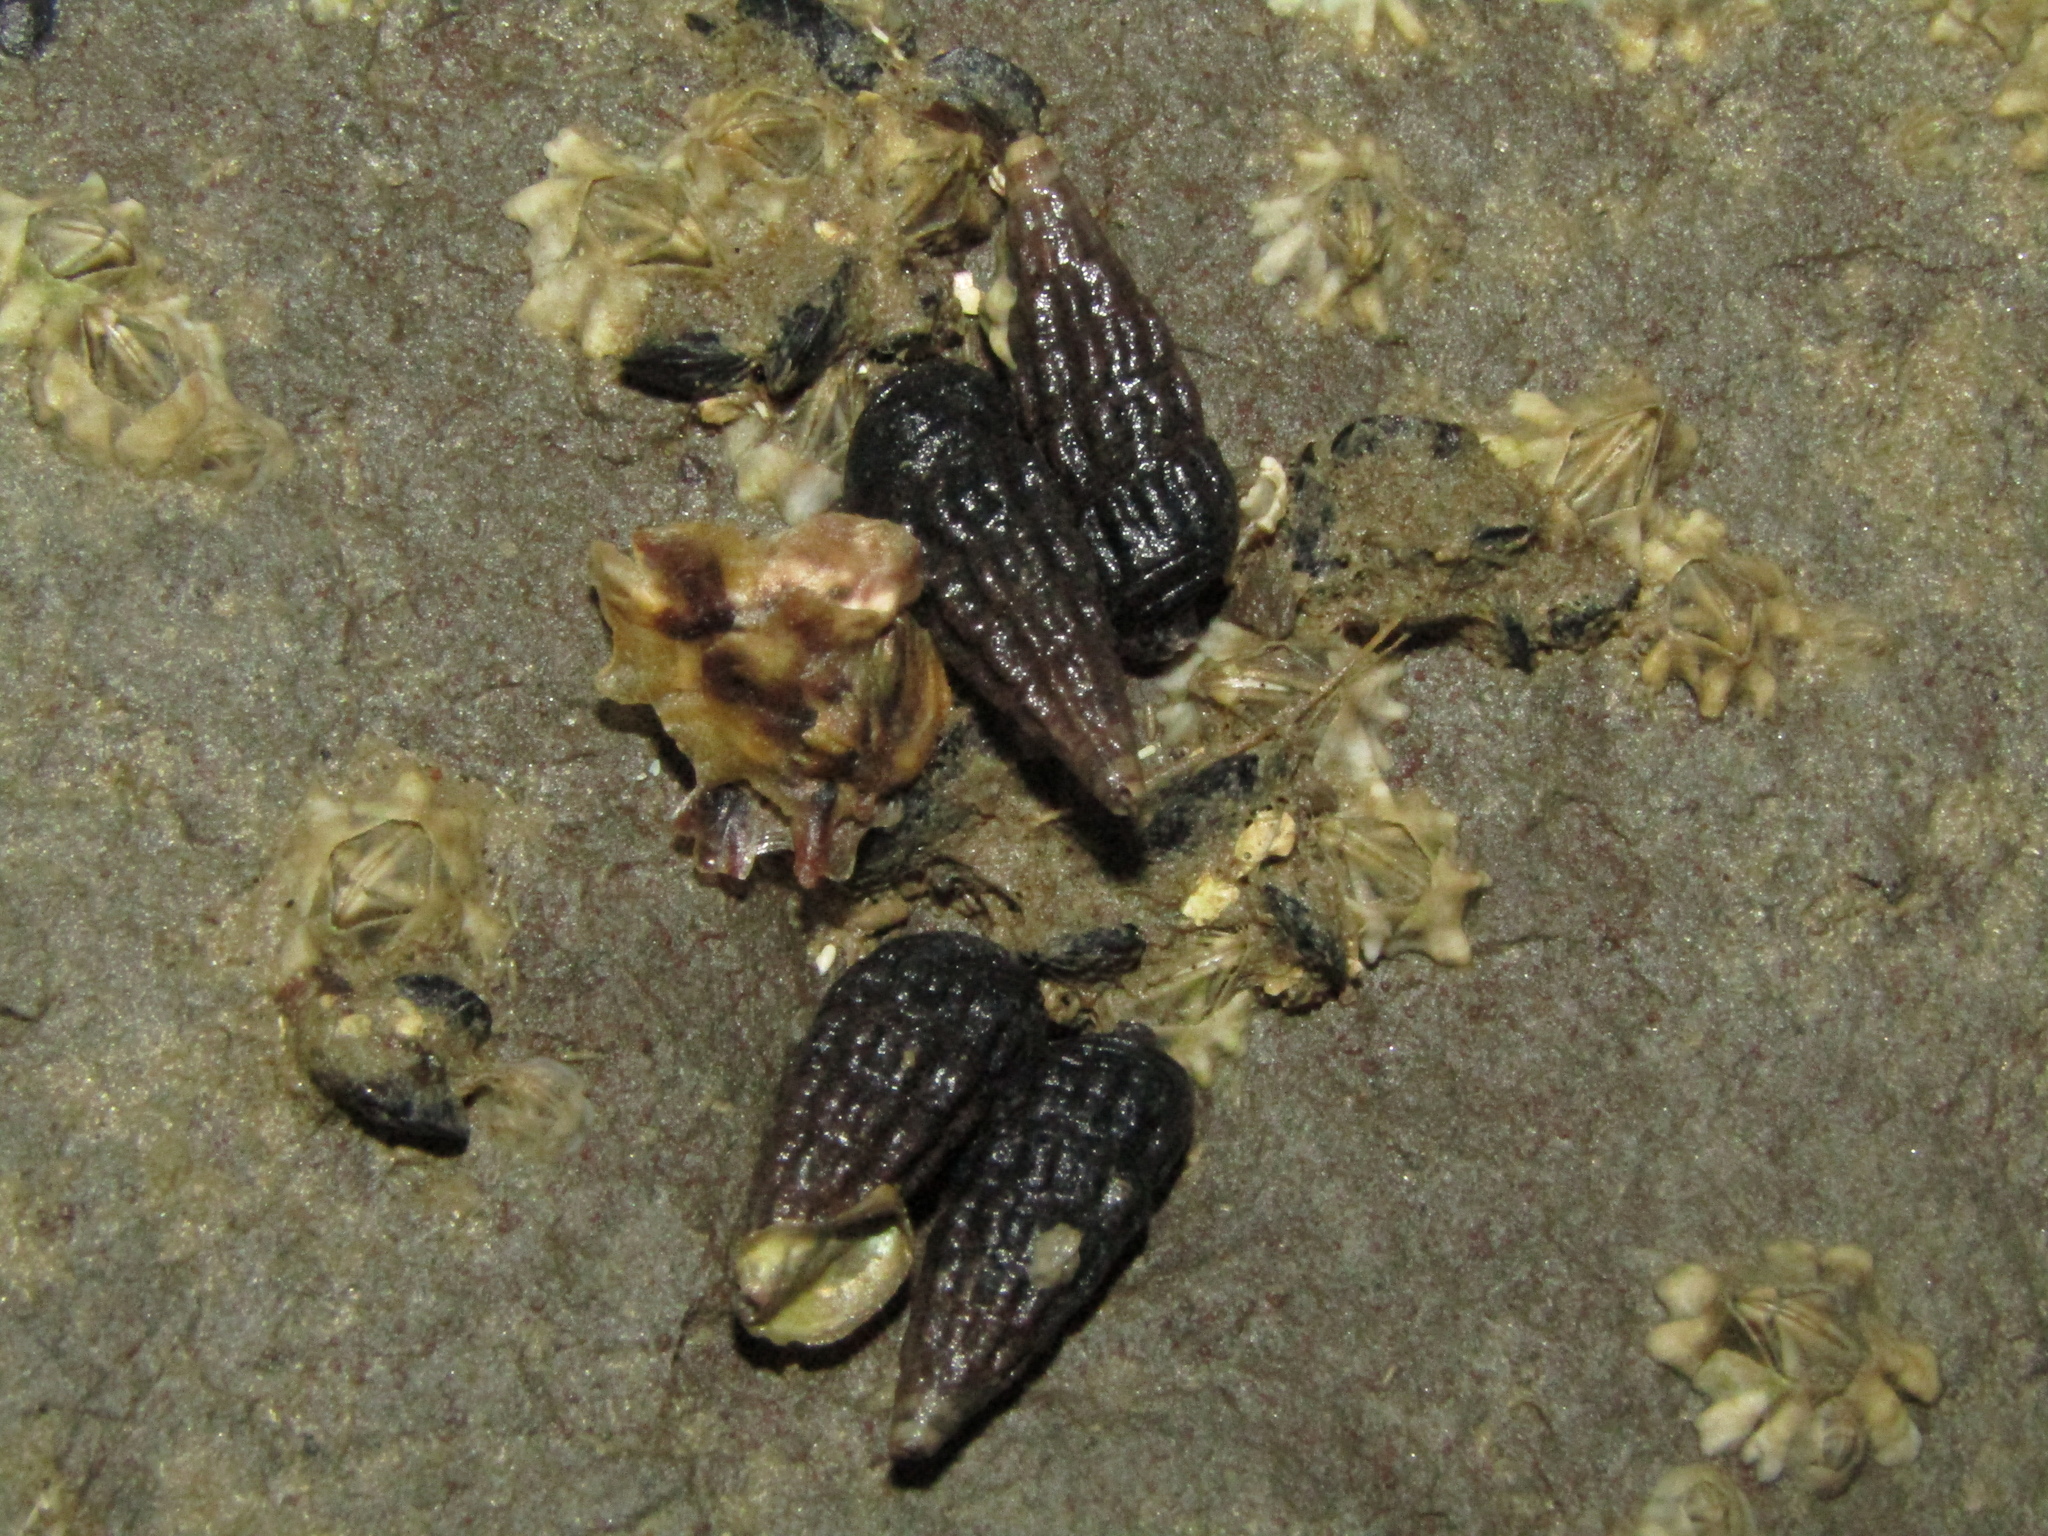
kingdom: Animalia
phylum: Mollusca
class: Gastropoda
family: Batillariidae
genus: Zeacumantus
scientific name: Zeacumantus subcarinatus
